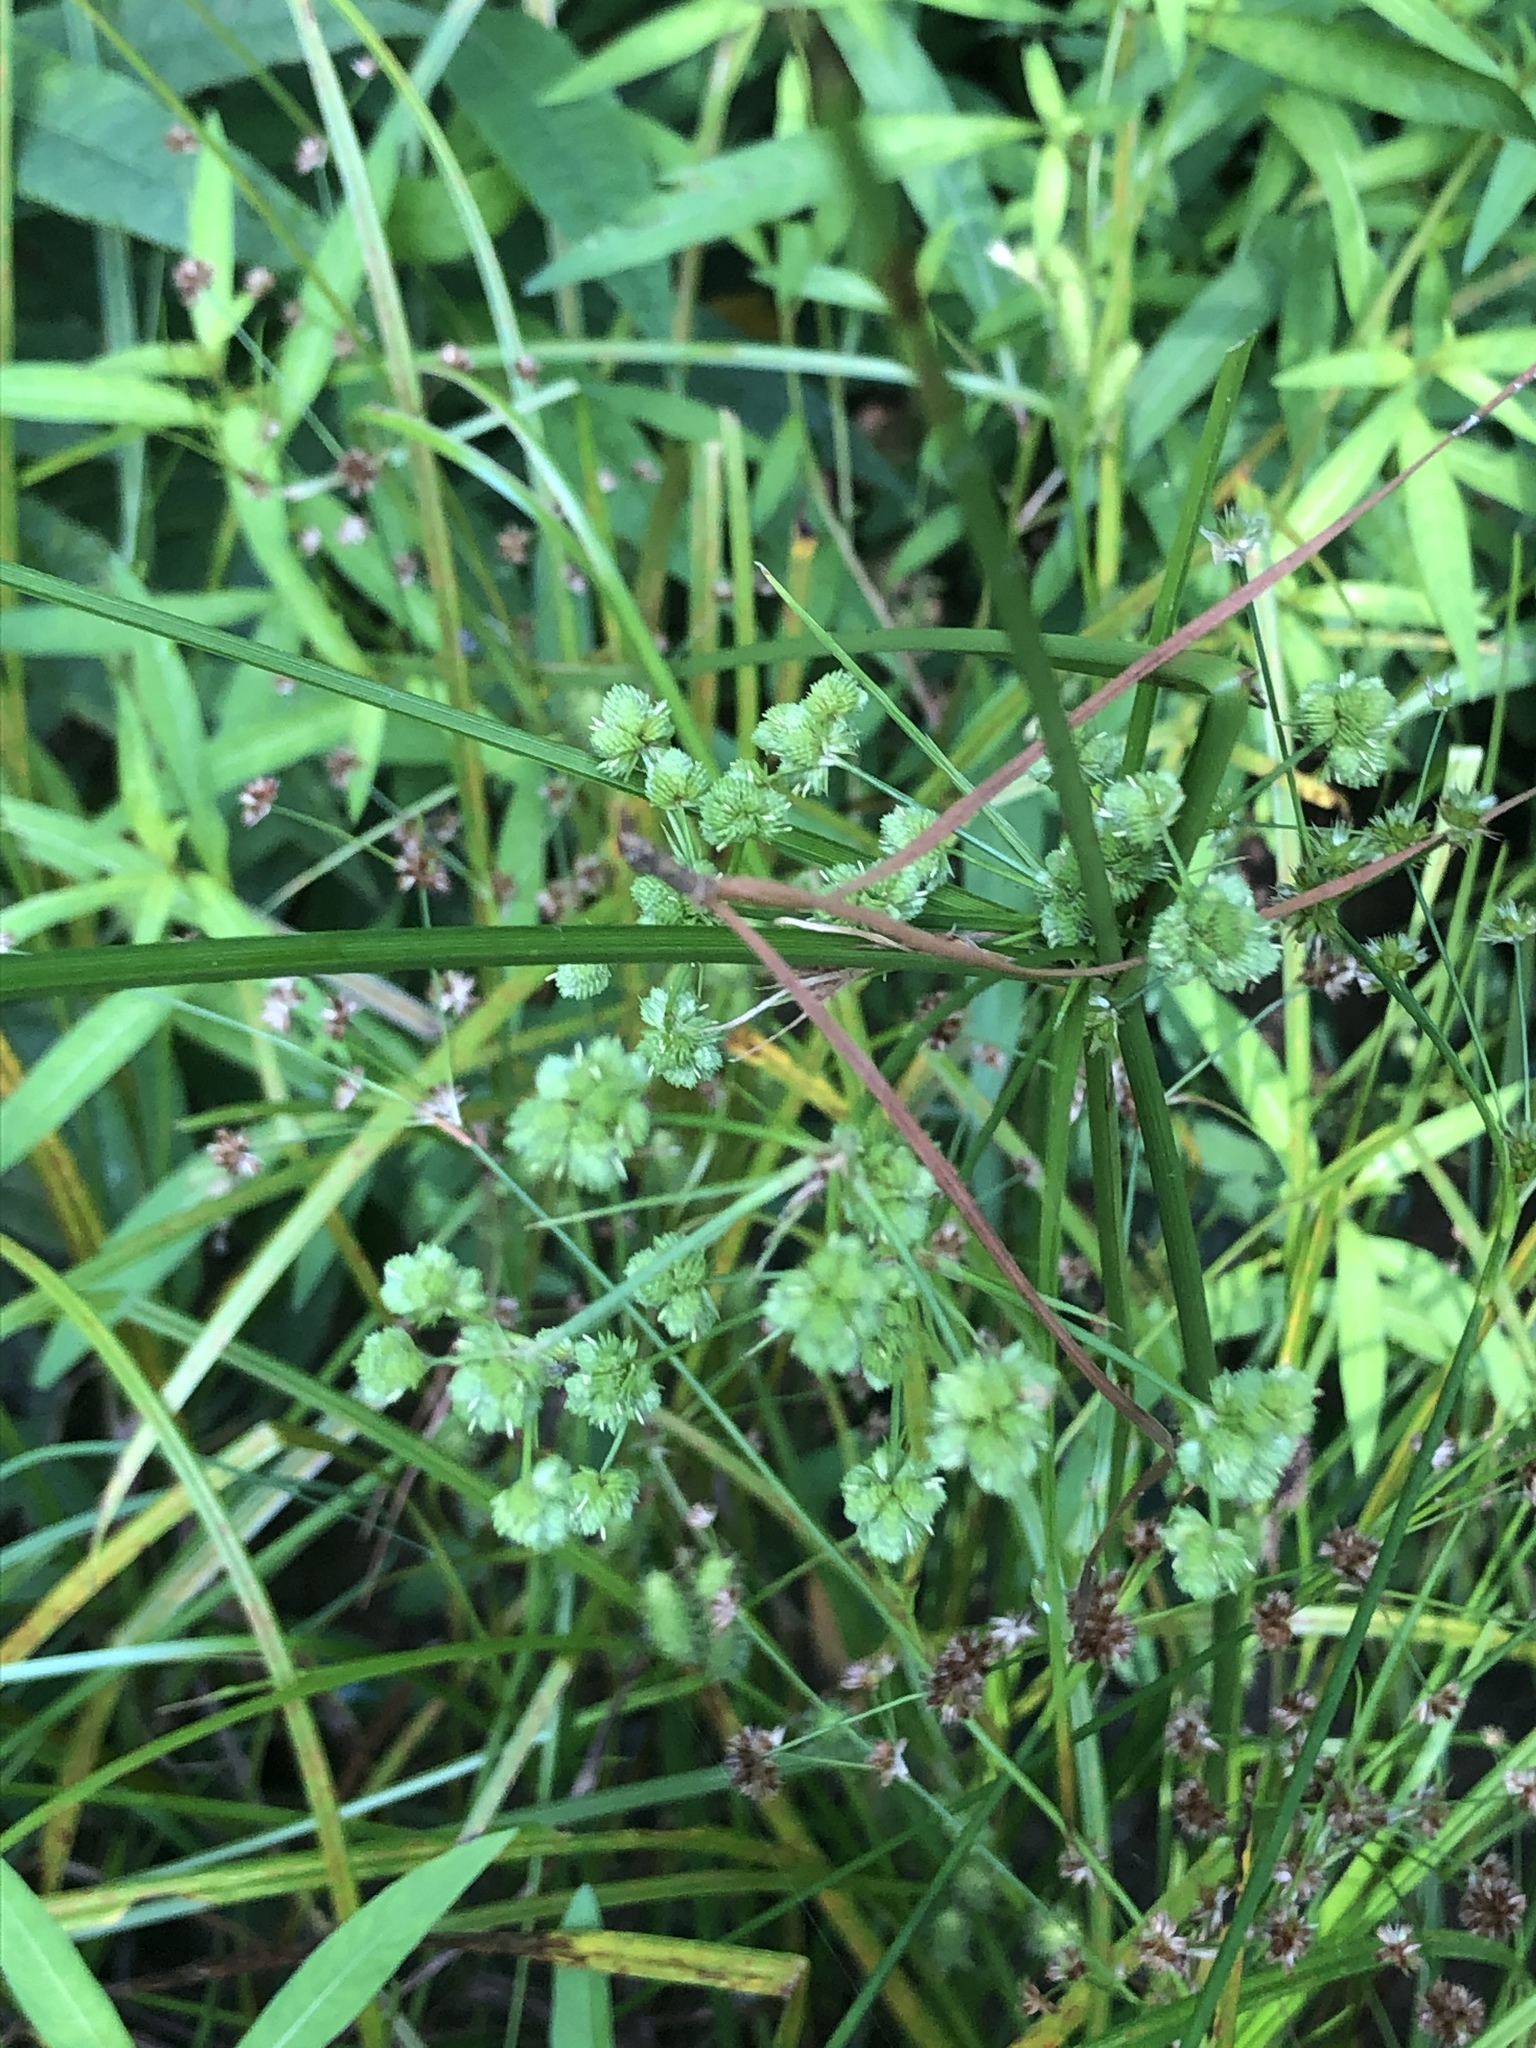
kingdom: Plantae
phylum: Tracheophyta
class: Liliopsida
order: Poales
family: Cyperaceae
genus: Cyperus
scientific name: Cyperus pseudovegetus
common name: Marsh flat sedge
